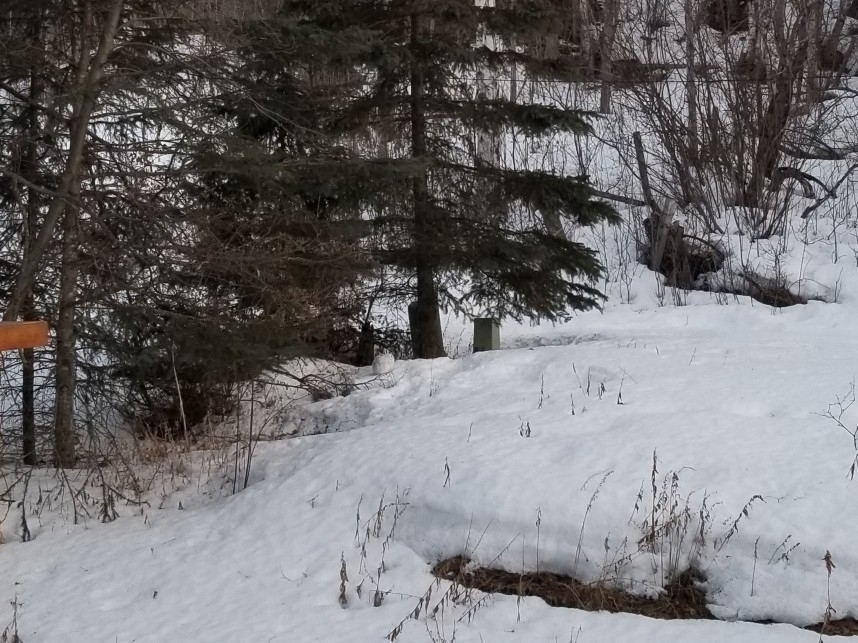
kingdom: Animalia
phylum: Chordata
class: Mammalia
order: Lagomorpha
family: Leporidae
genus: Lepus
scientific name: Lepus americanus
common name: Snowshoe hare
